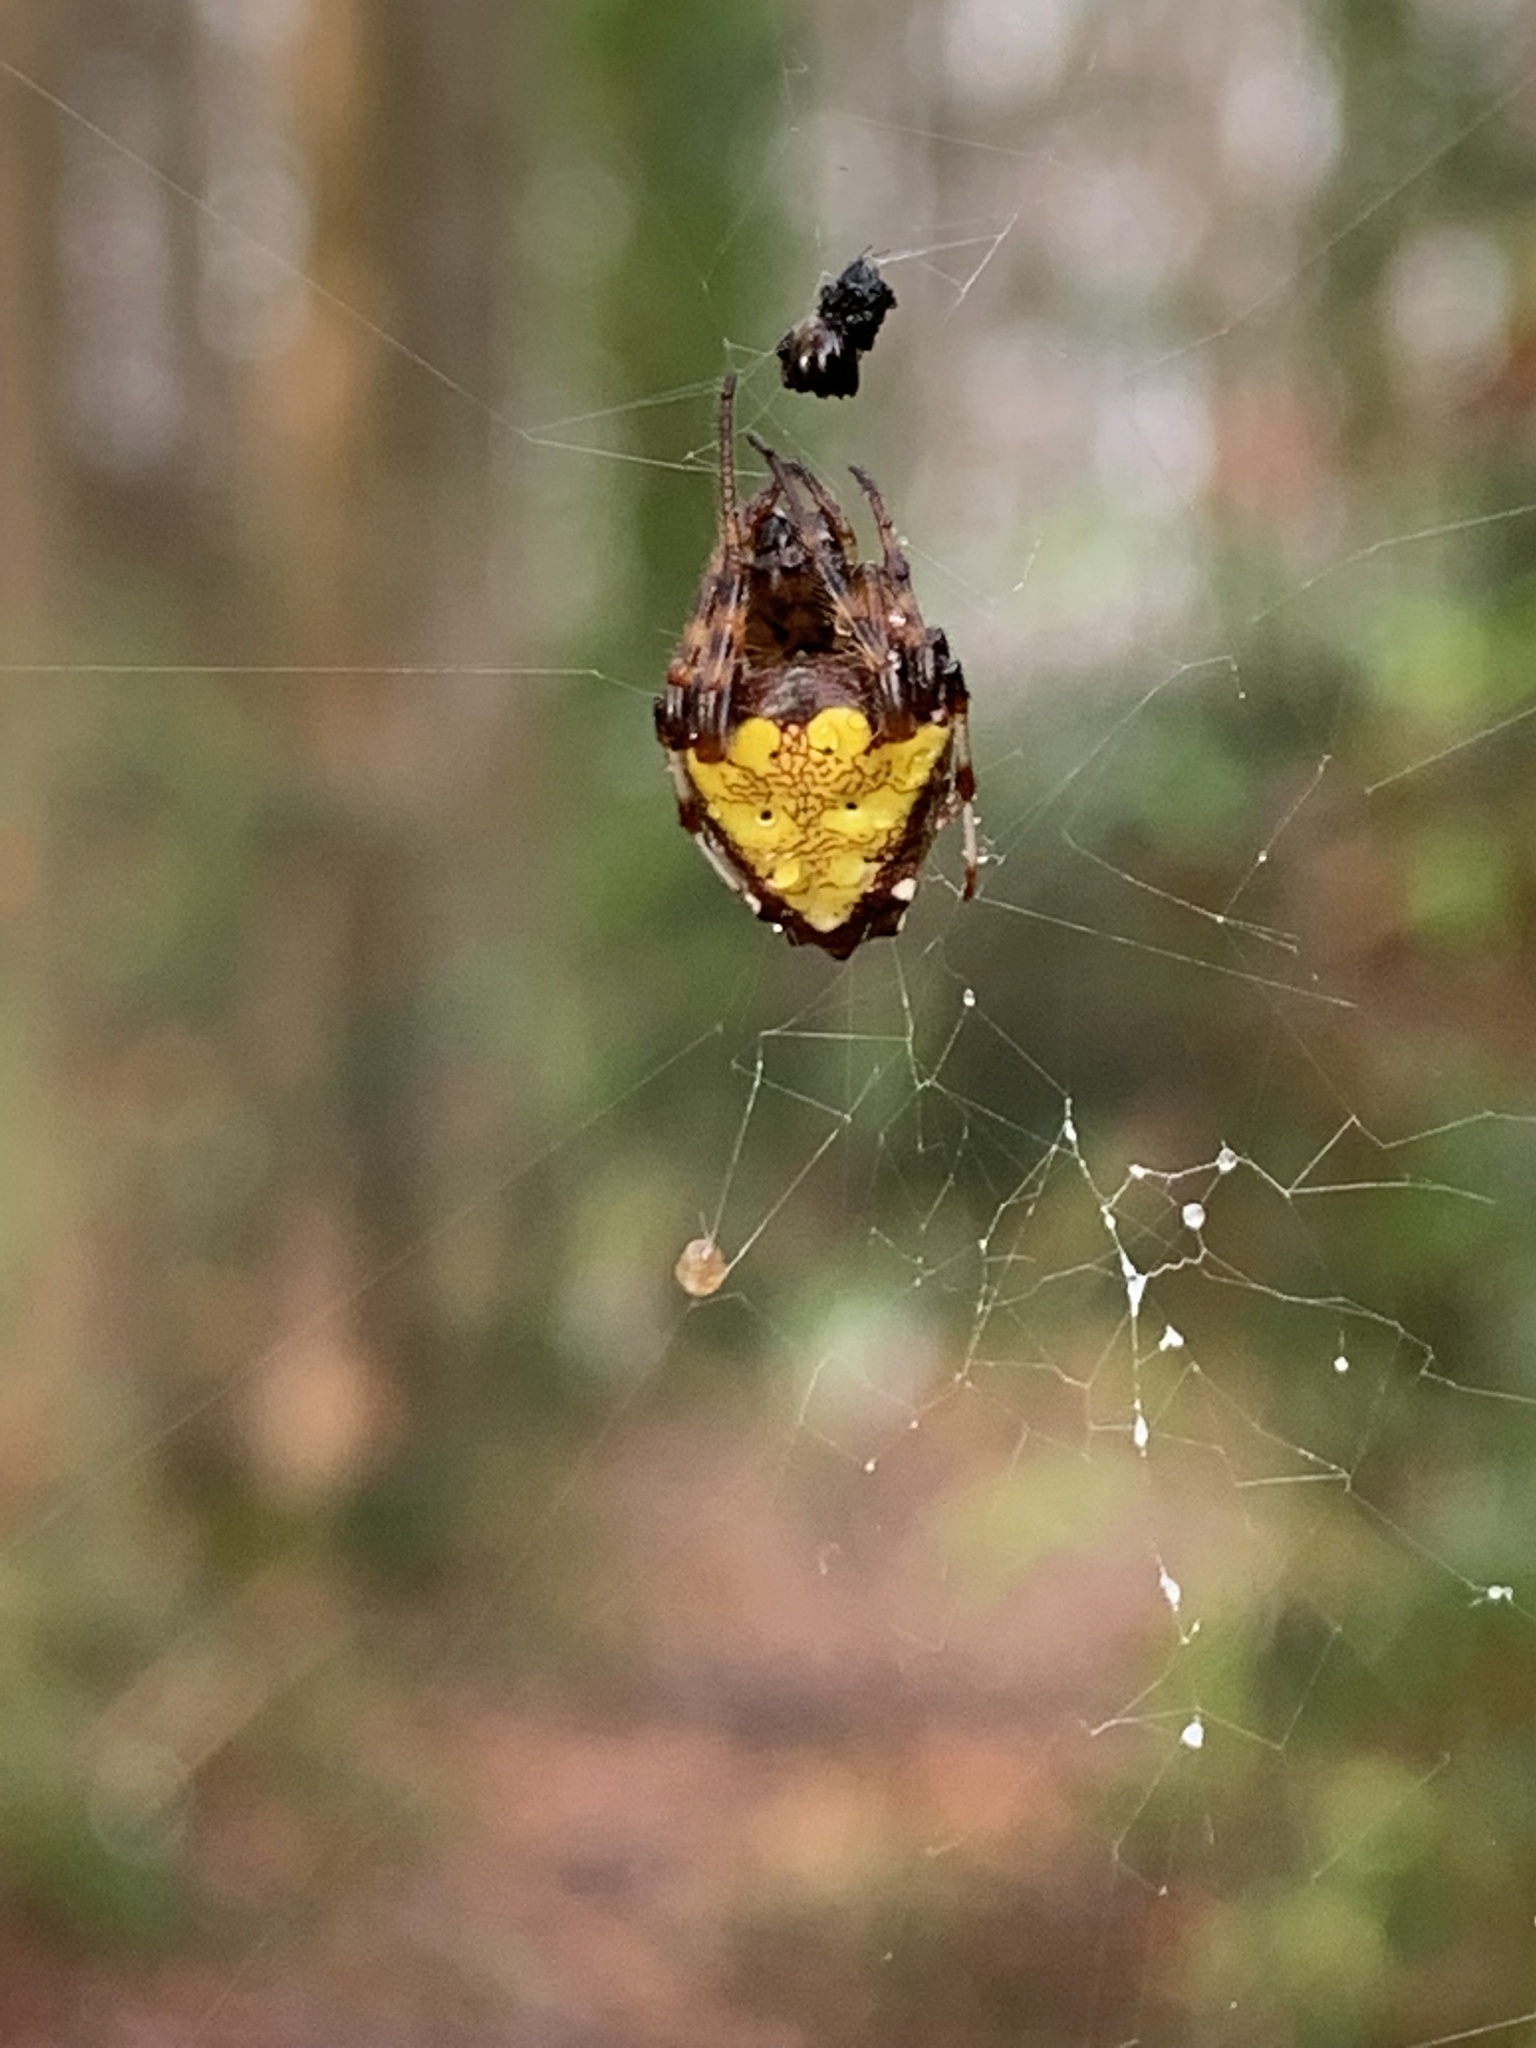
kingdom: Animalia
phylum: Arthropoda
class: Arachnida
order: Araneae
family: Araneidae
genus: Verrucosa
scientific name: Verrucosa arenata
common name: Orb weavers
